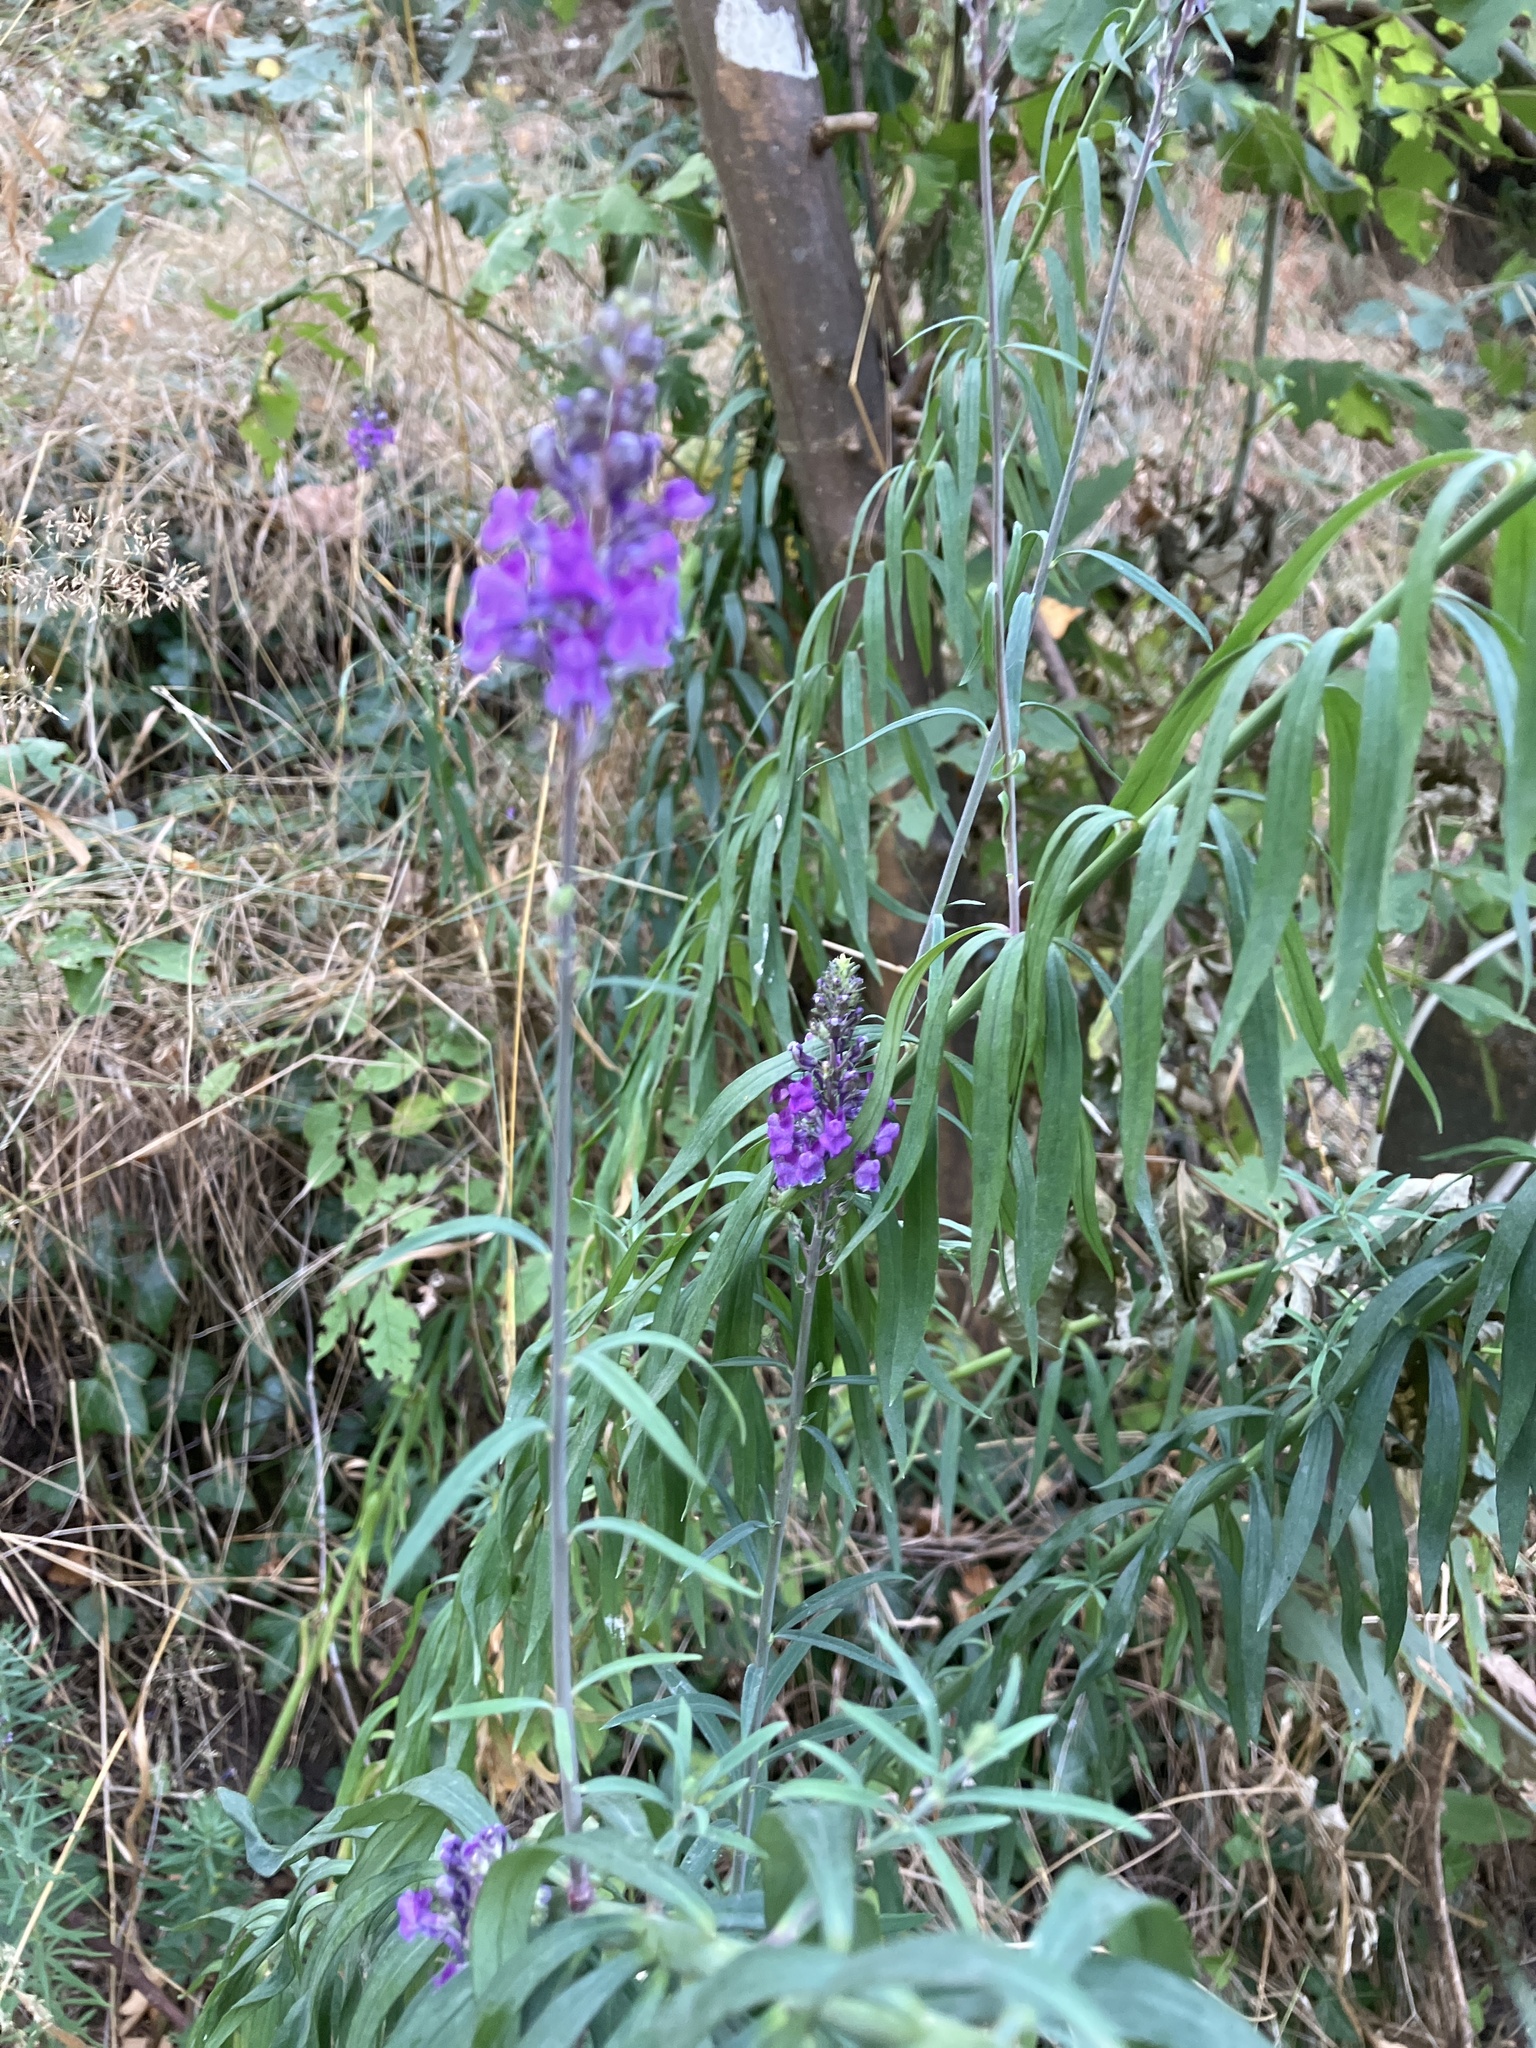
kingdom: Plantae
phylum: Tracheophyta
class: Magnoliopsida
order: Lamiales
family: Plantaginaceae
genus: Linaria
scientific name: Linaria purpurea
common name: Purple toadflax
